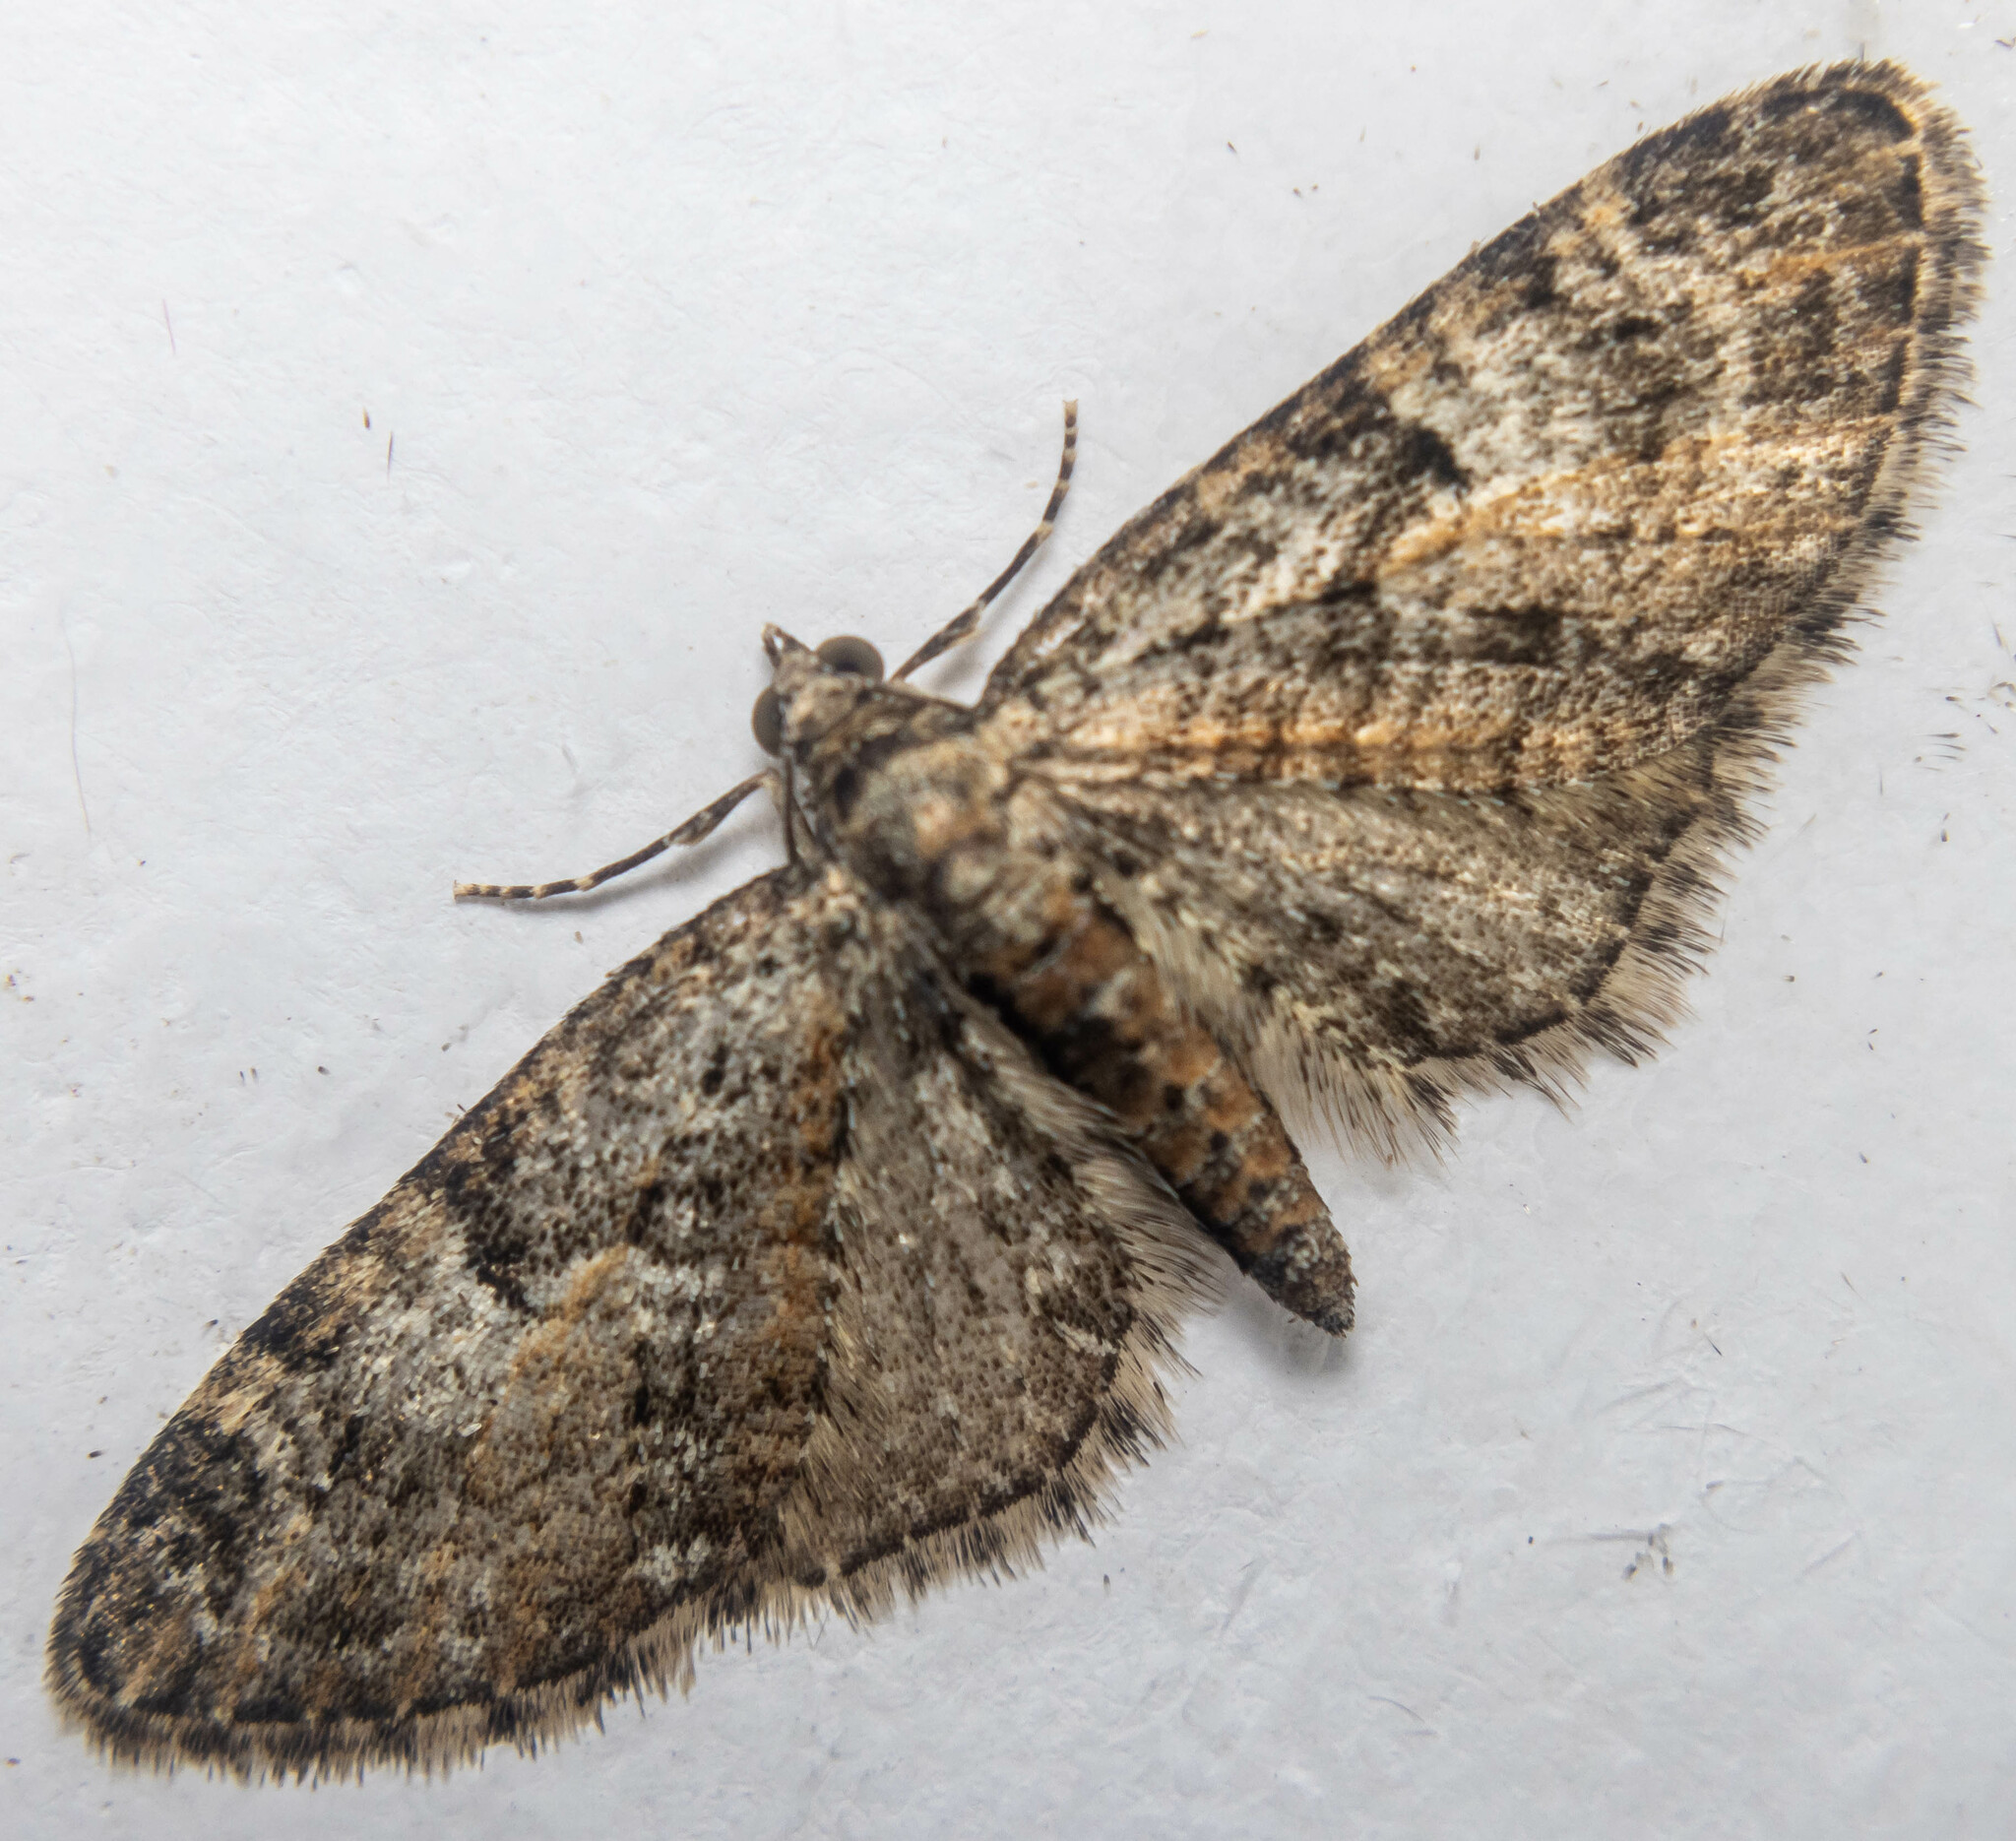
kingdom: Animalia
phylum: Arthropoda
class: Insecta
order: Lepidoptera
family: Geometridae
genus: Eupithecia
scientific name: Eupithecia abbreviata
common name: Brindled pug
